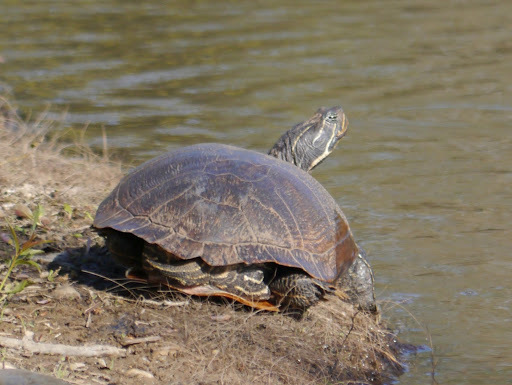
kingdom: Animalia
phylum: Chordata
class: Testudines
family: Emydidae
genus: Pseudemys
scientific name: Pseudemys rubriventris
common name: American red-bellied turtle
